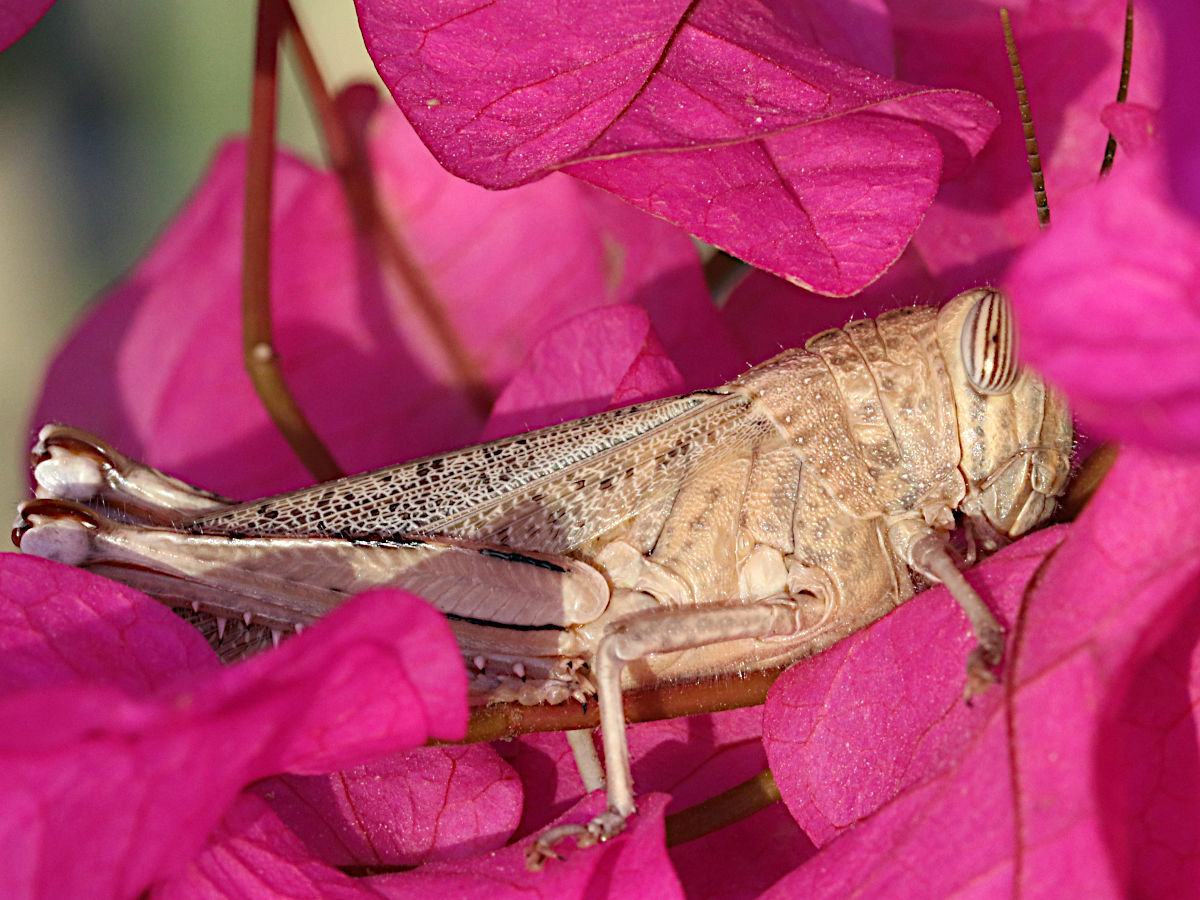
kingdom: Animalia
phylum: Arthropoda
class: Insecta
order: Orthoptera
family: Acrididae
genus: Anacridium
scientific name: Anacridium aegyptium
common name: Egyptian grasshopper
